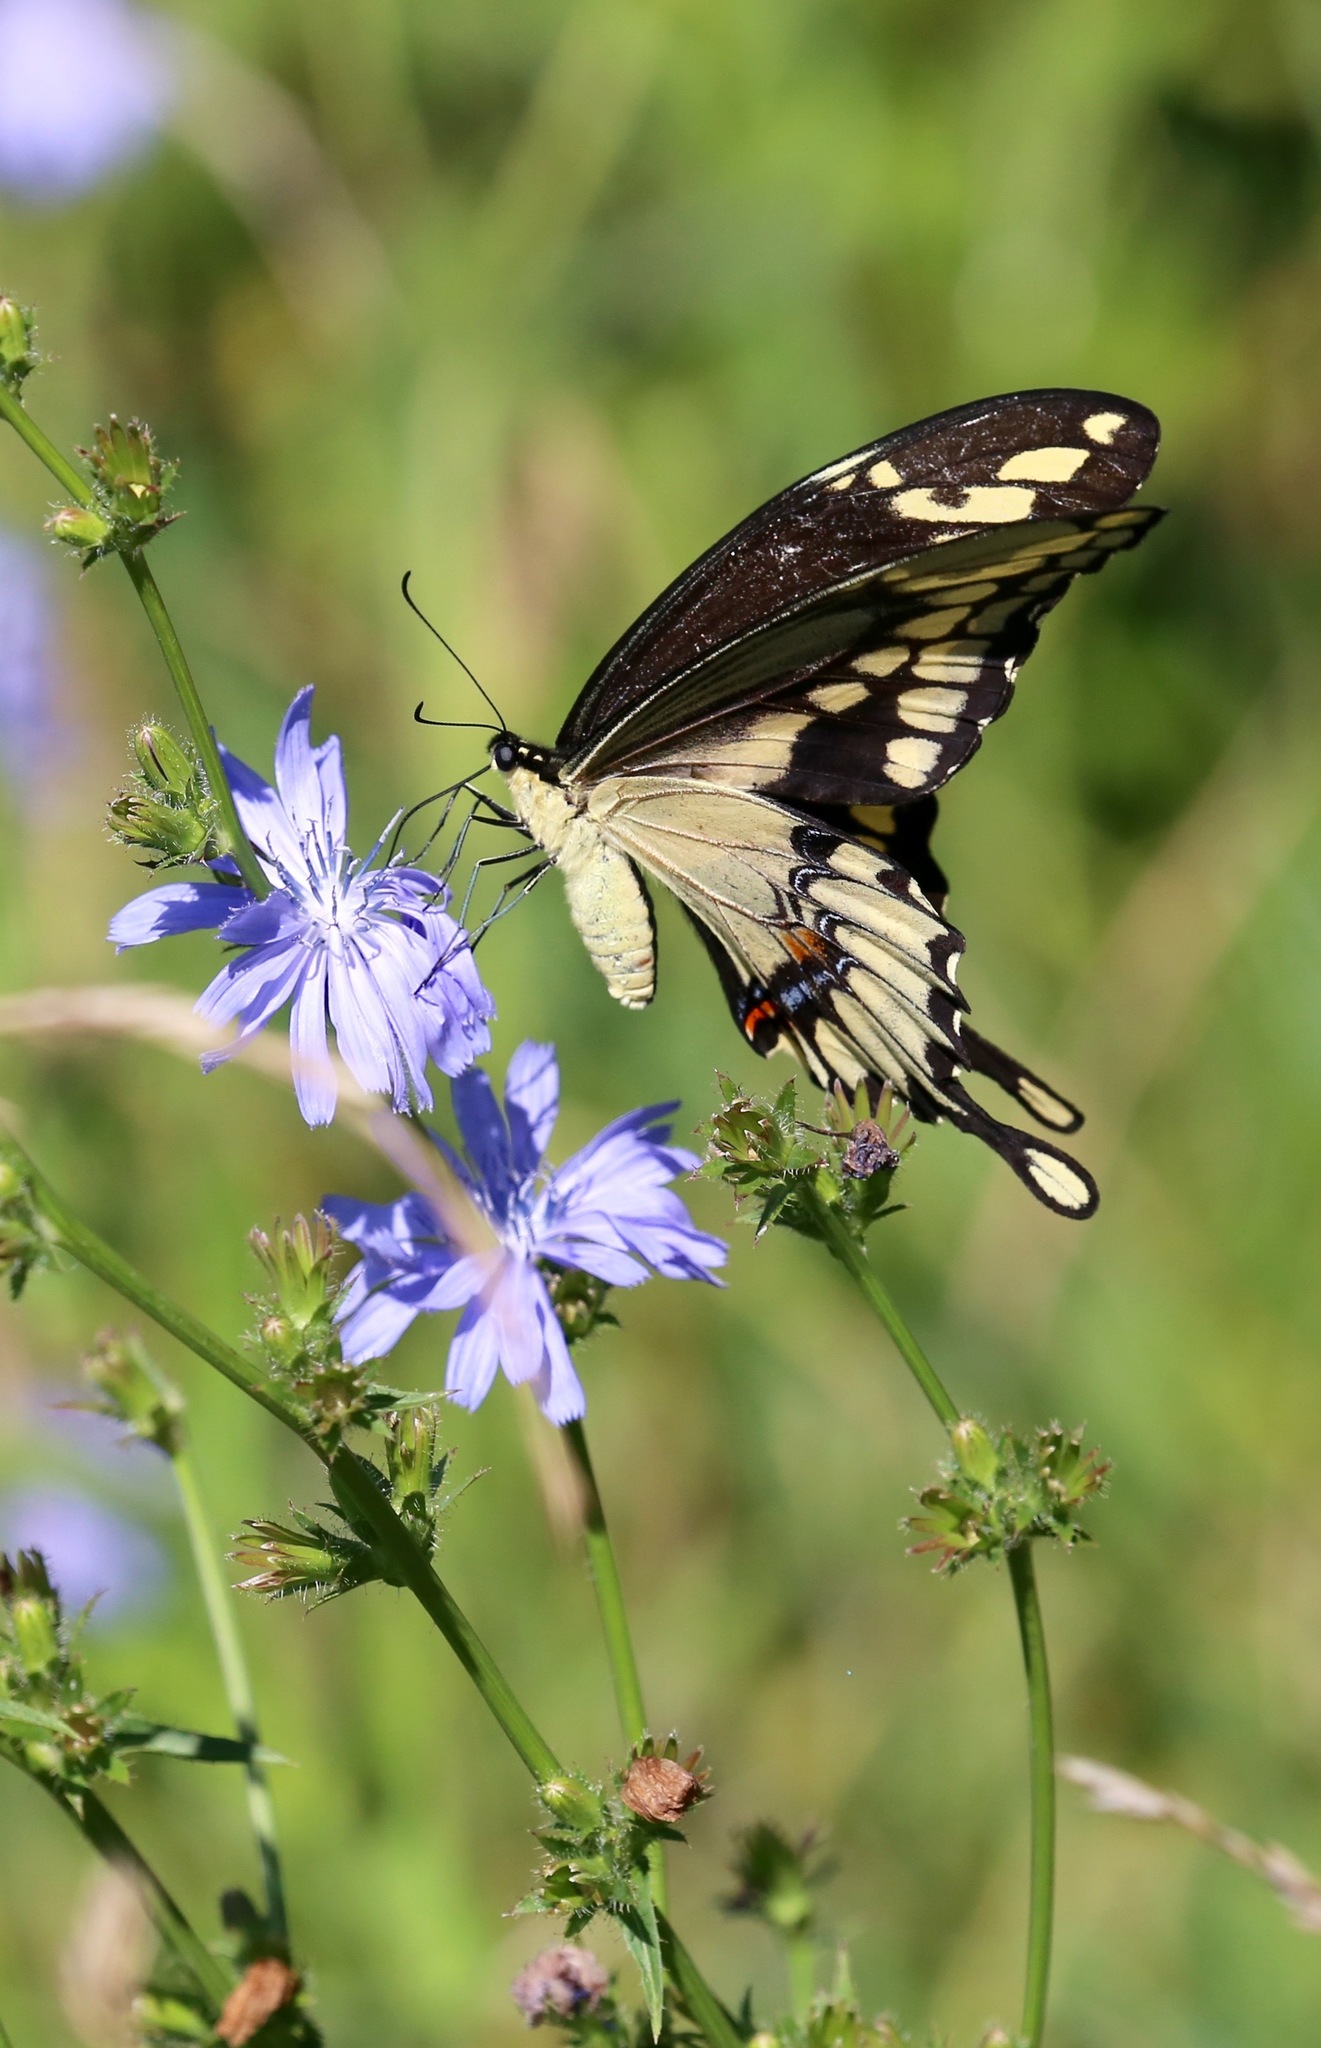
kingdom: Animalia
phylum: Arthropoda
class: Insecta
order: Lepidoptera
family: Papilionidae
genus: Papilio
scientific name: Papilio cresphontes
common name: Giant swallowtail
